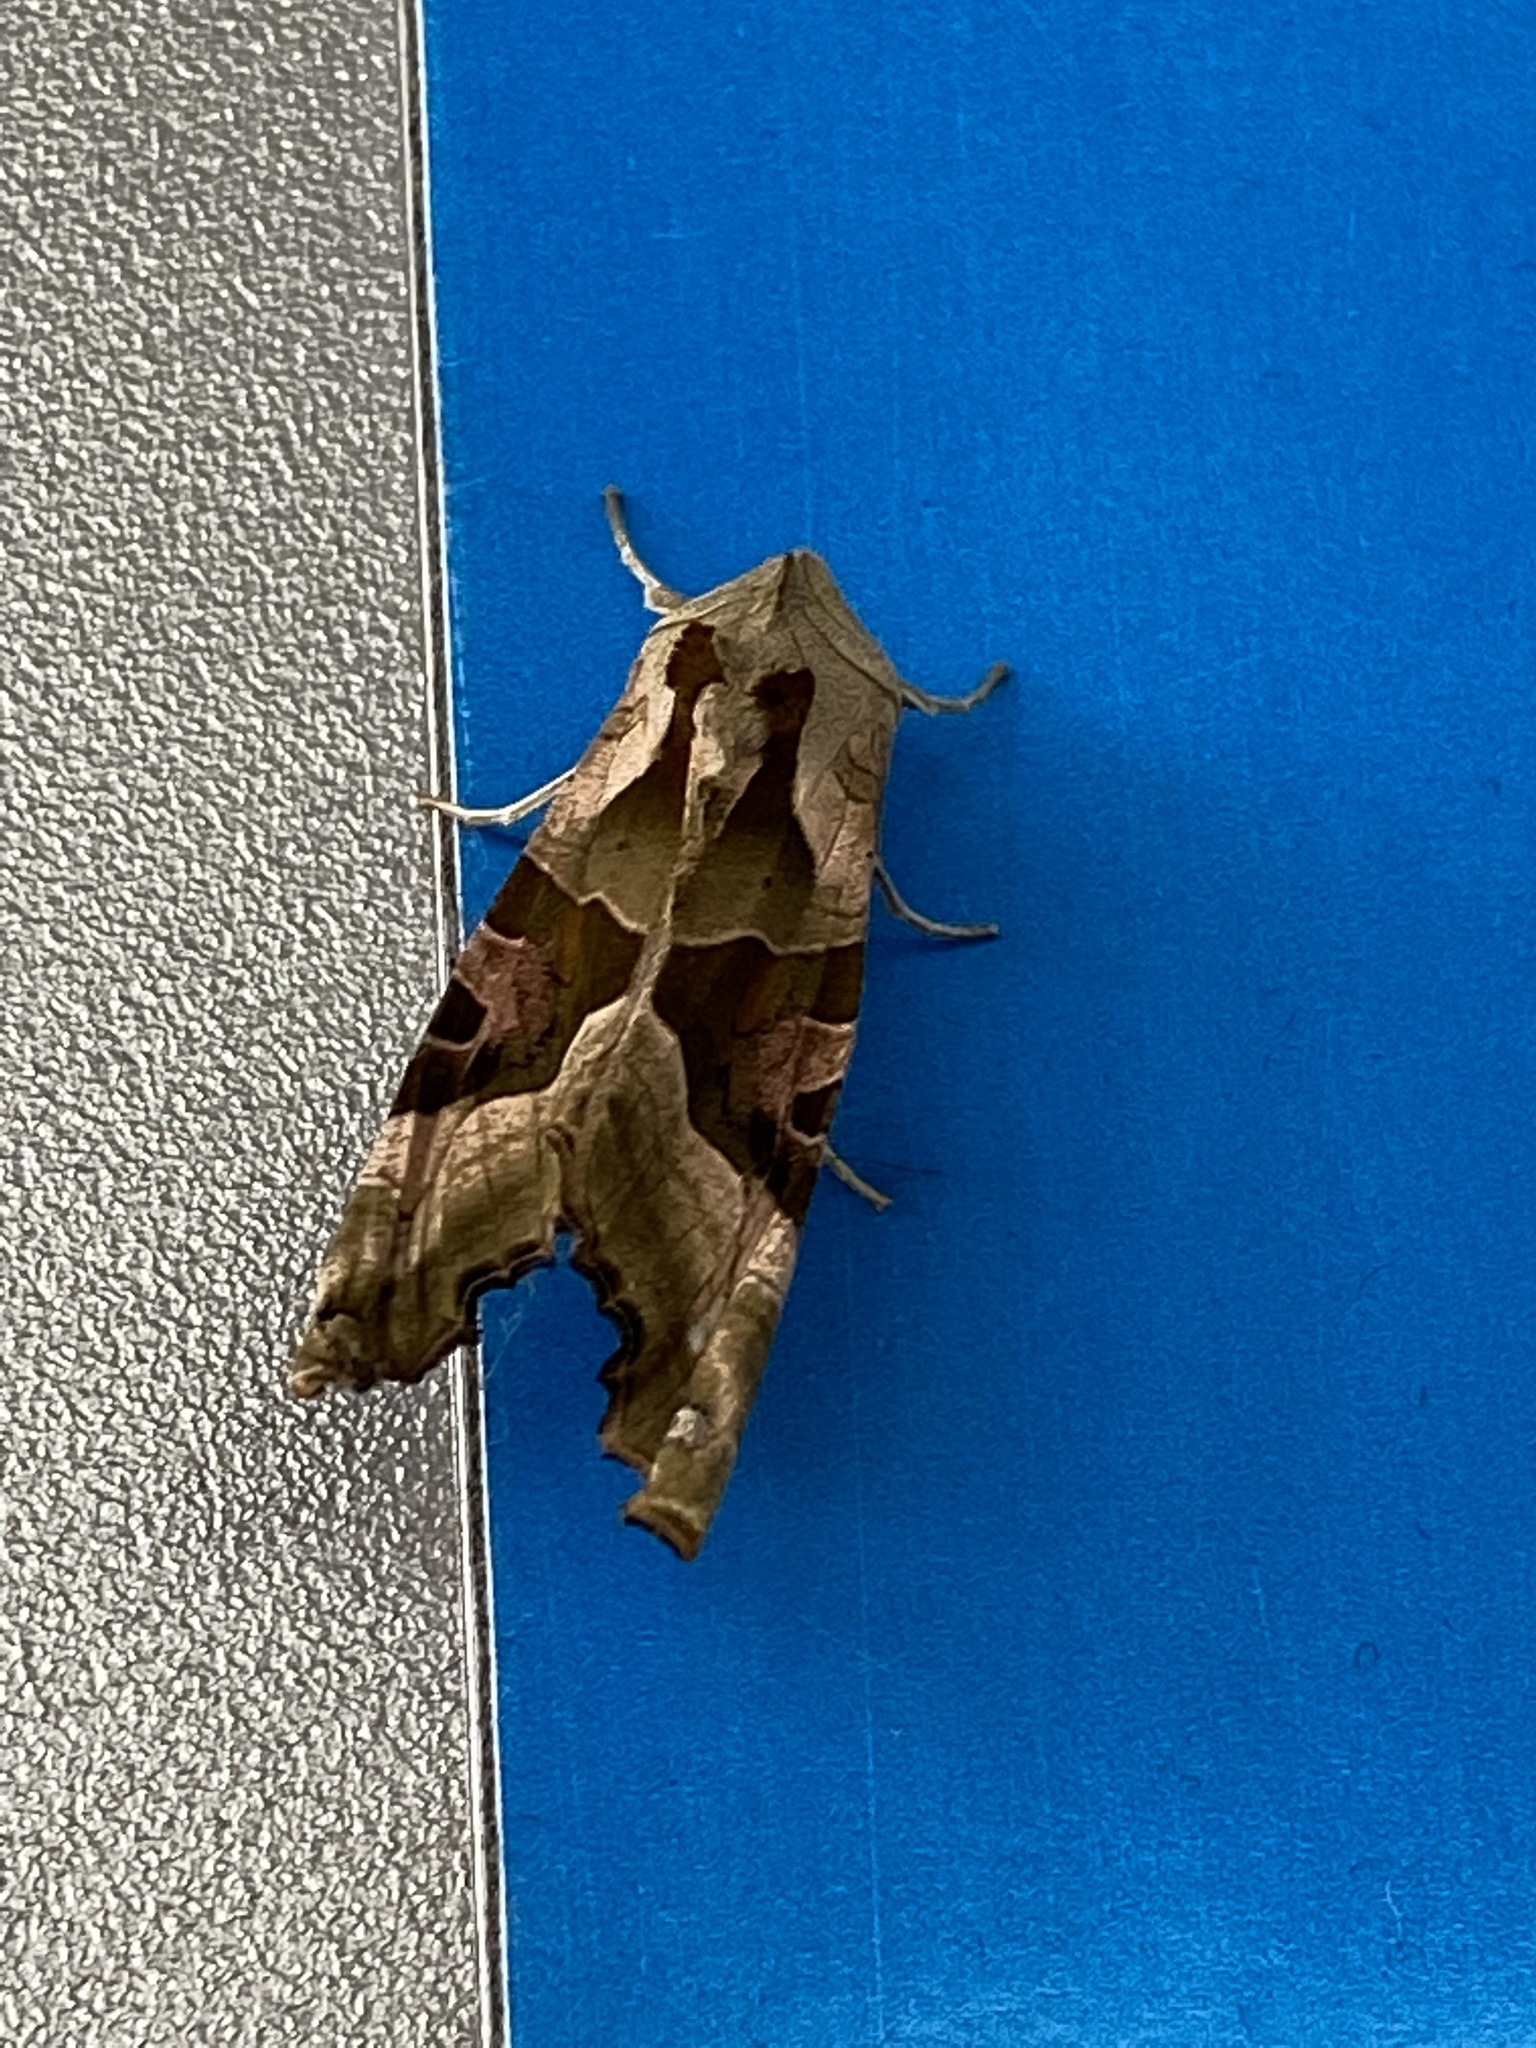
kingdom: Animalia
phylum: Arthropoda
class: Insecta
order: Lepidoptera
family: Noctuidae
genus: Phlogophora
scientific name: Phlogophora meticulosa
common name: Angle shades
